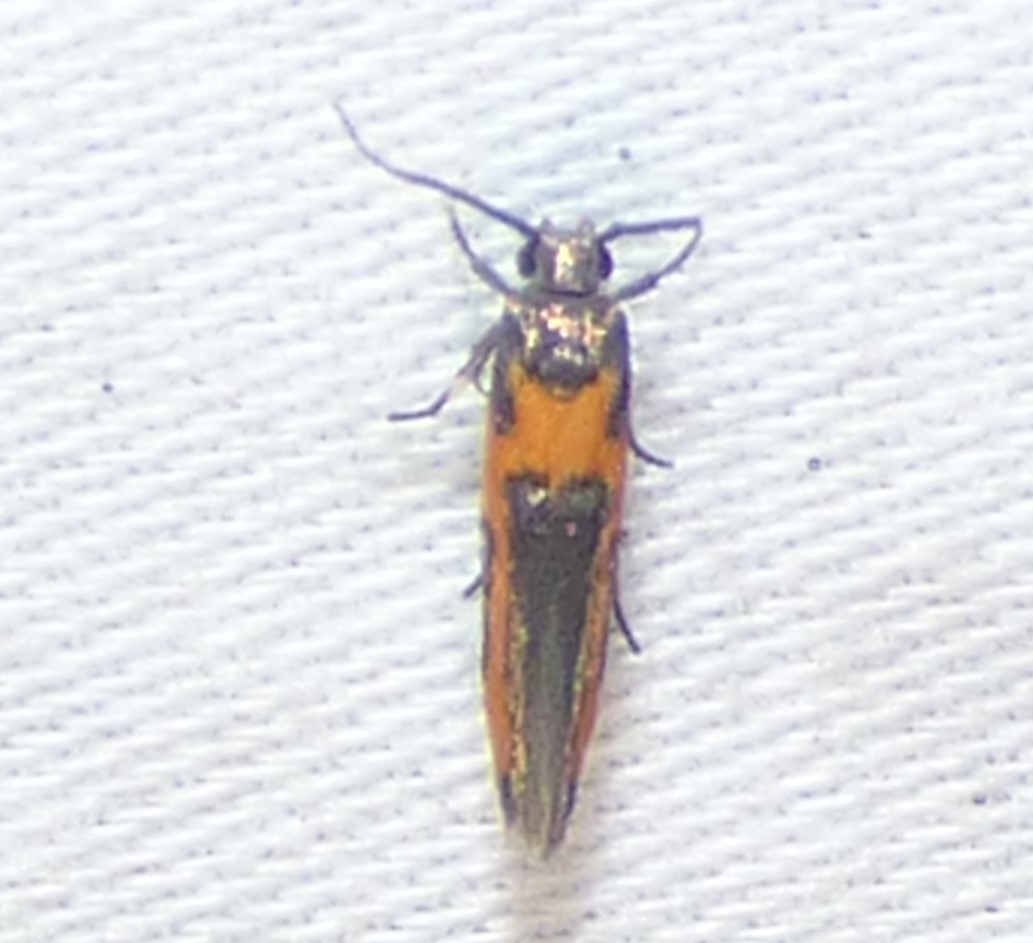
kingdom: Animalia
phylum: Arthropoda
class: Insecta
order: Lepidoptera
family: Cosmopterigidae
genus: Euclemensia
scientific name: Euclemensia bassettella
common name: Kermes scale moth
